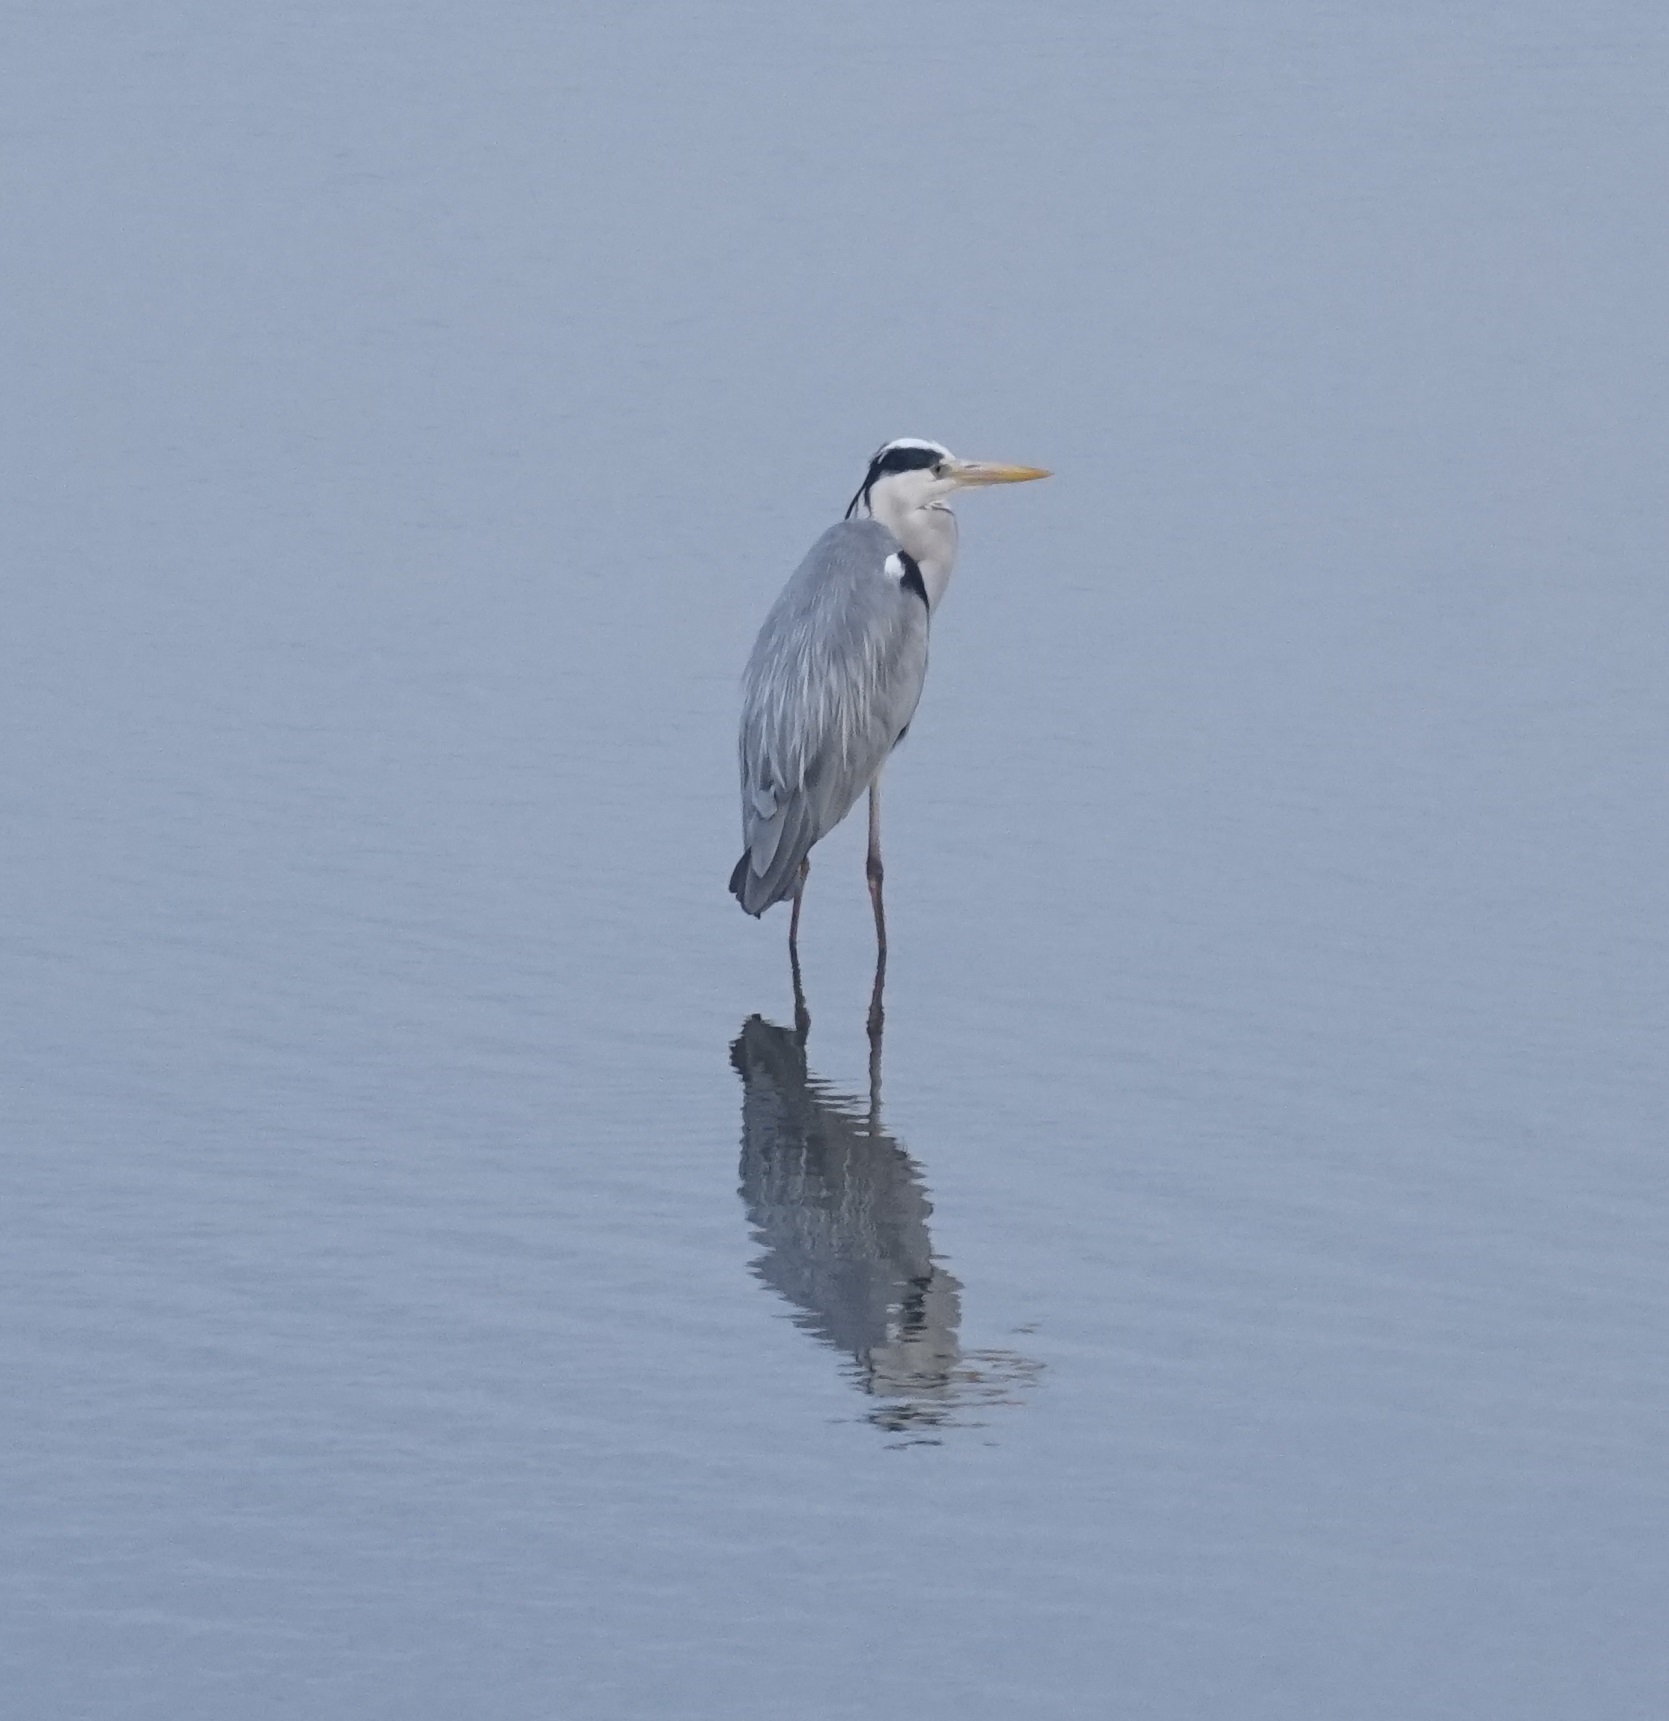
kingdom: Animalia
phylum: Chordata
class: Aves
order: Pelecaniformes
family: Ardeidae
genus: Ardea
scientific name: Ardea cinerea
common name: Grey heron
